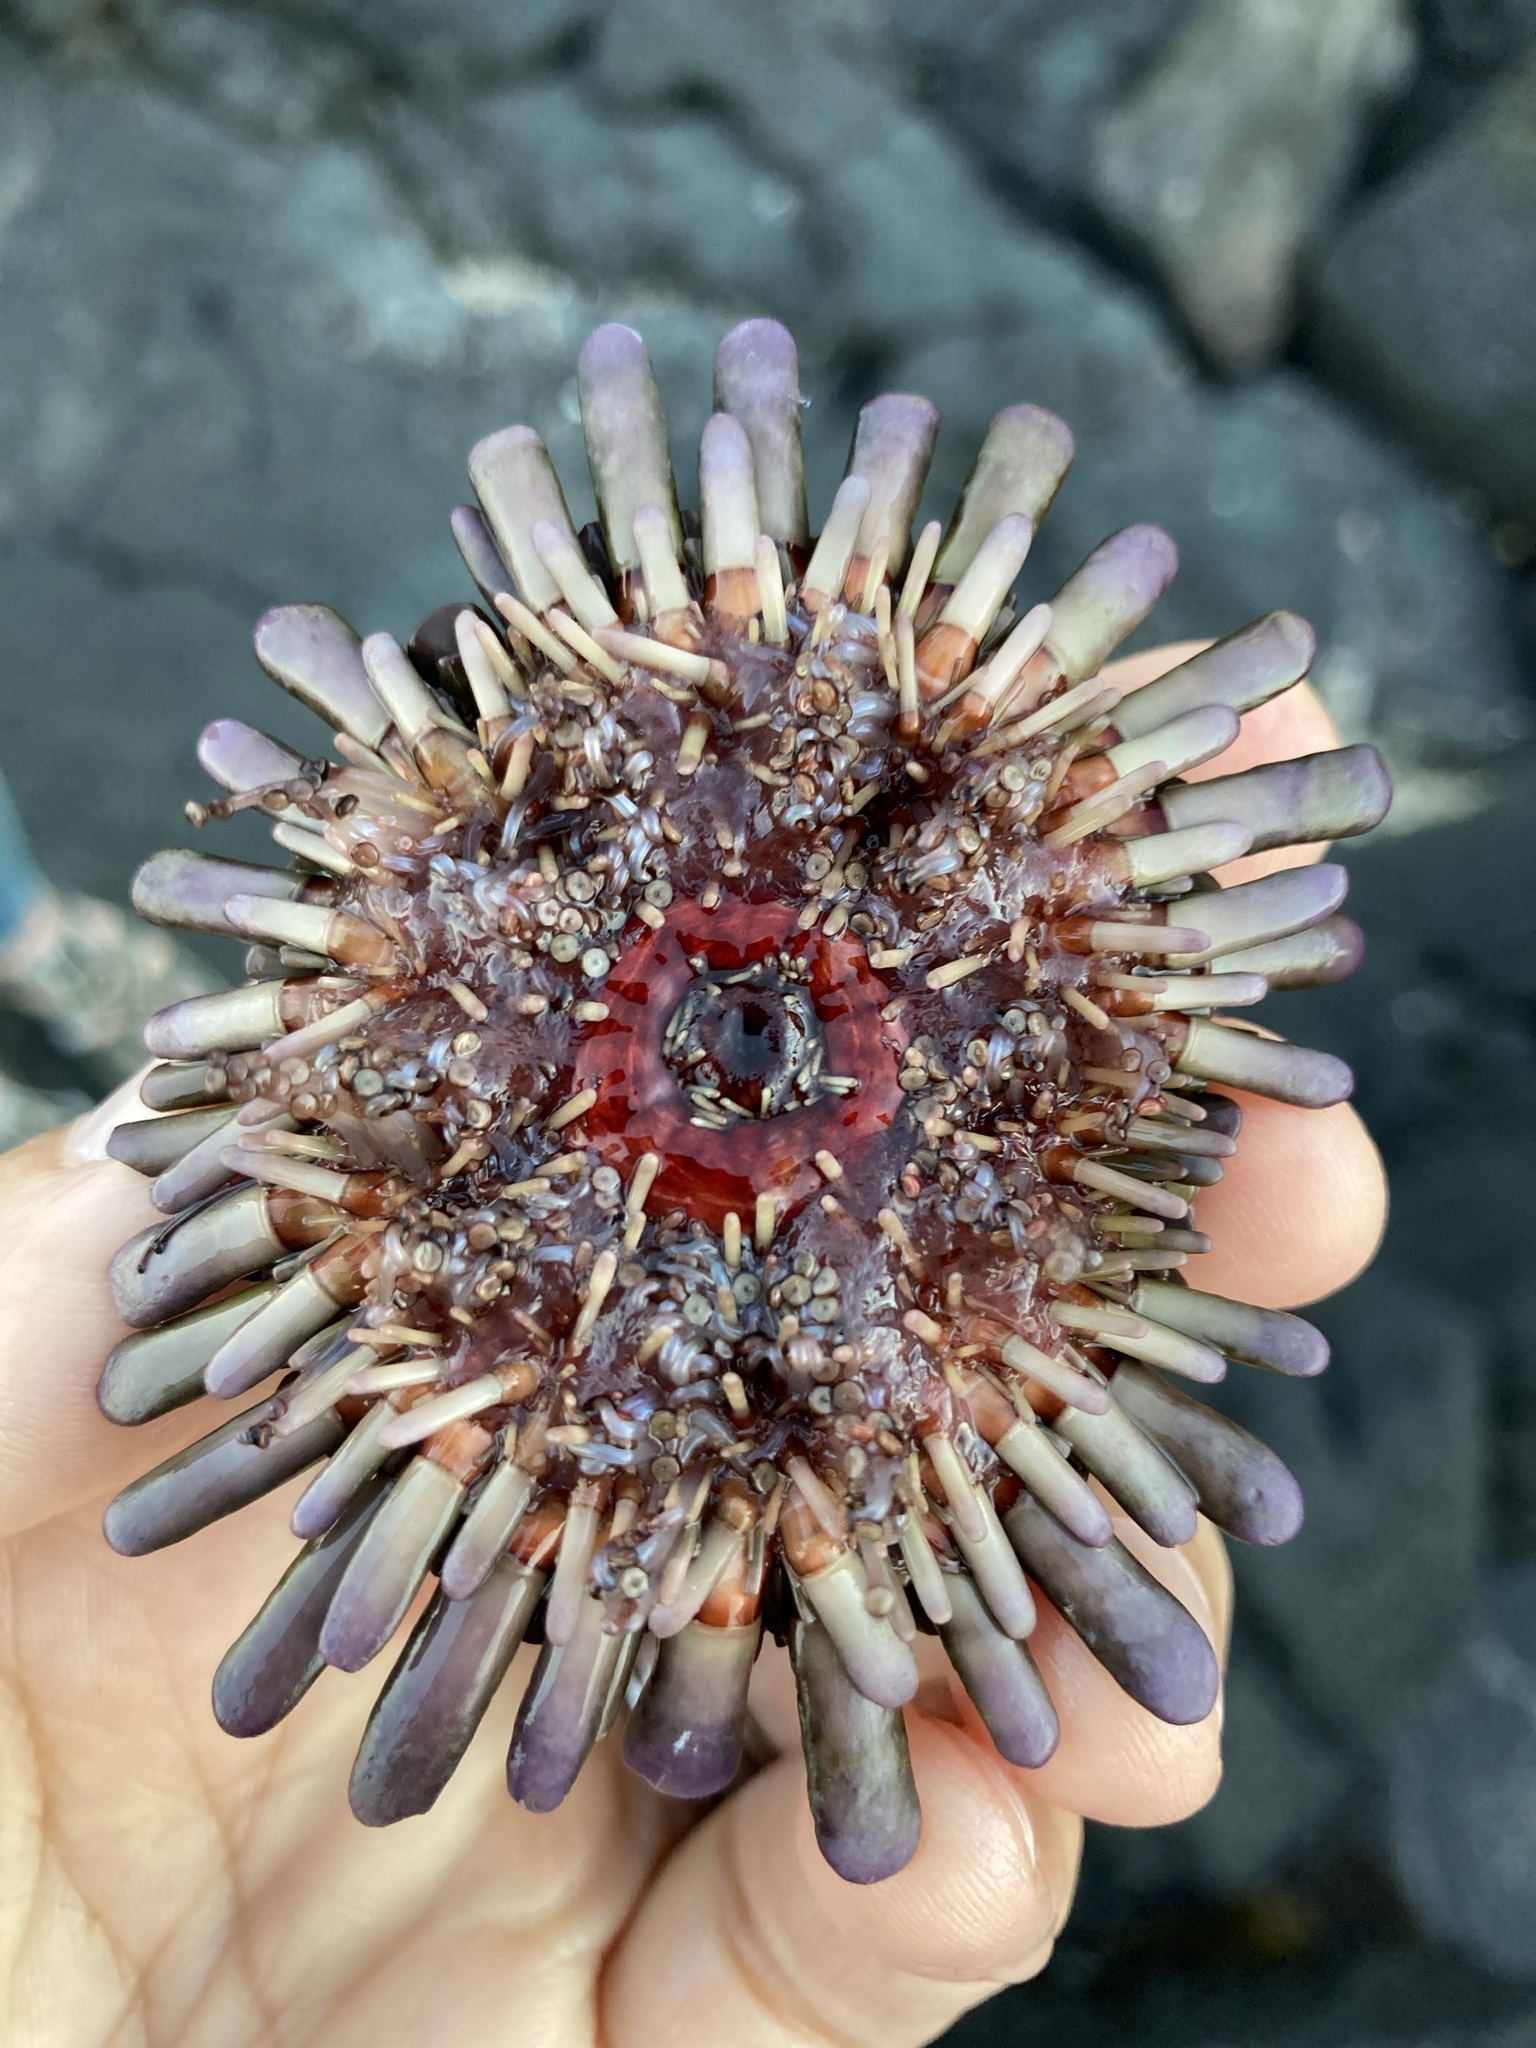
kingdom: Animalia
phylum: Echinodermata
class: Echinoidea
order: Camarodonta
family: Echinometridae
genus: Colobocentrotus
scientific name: Colobocentrotus atratus
